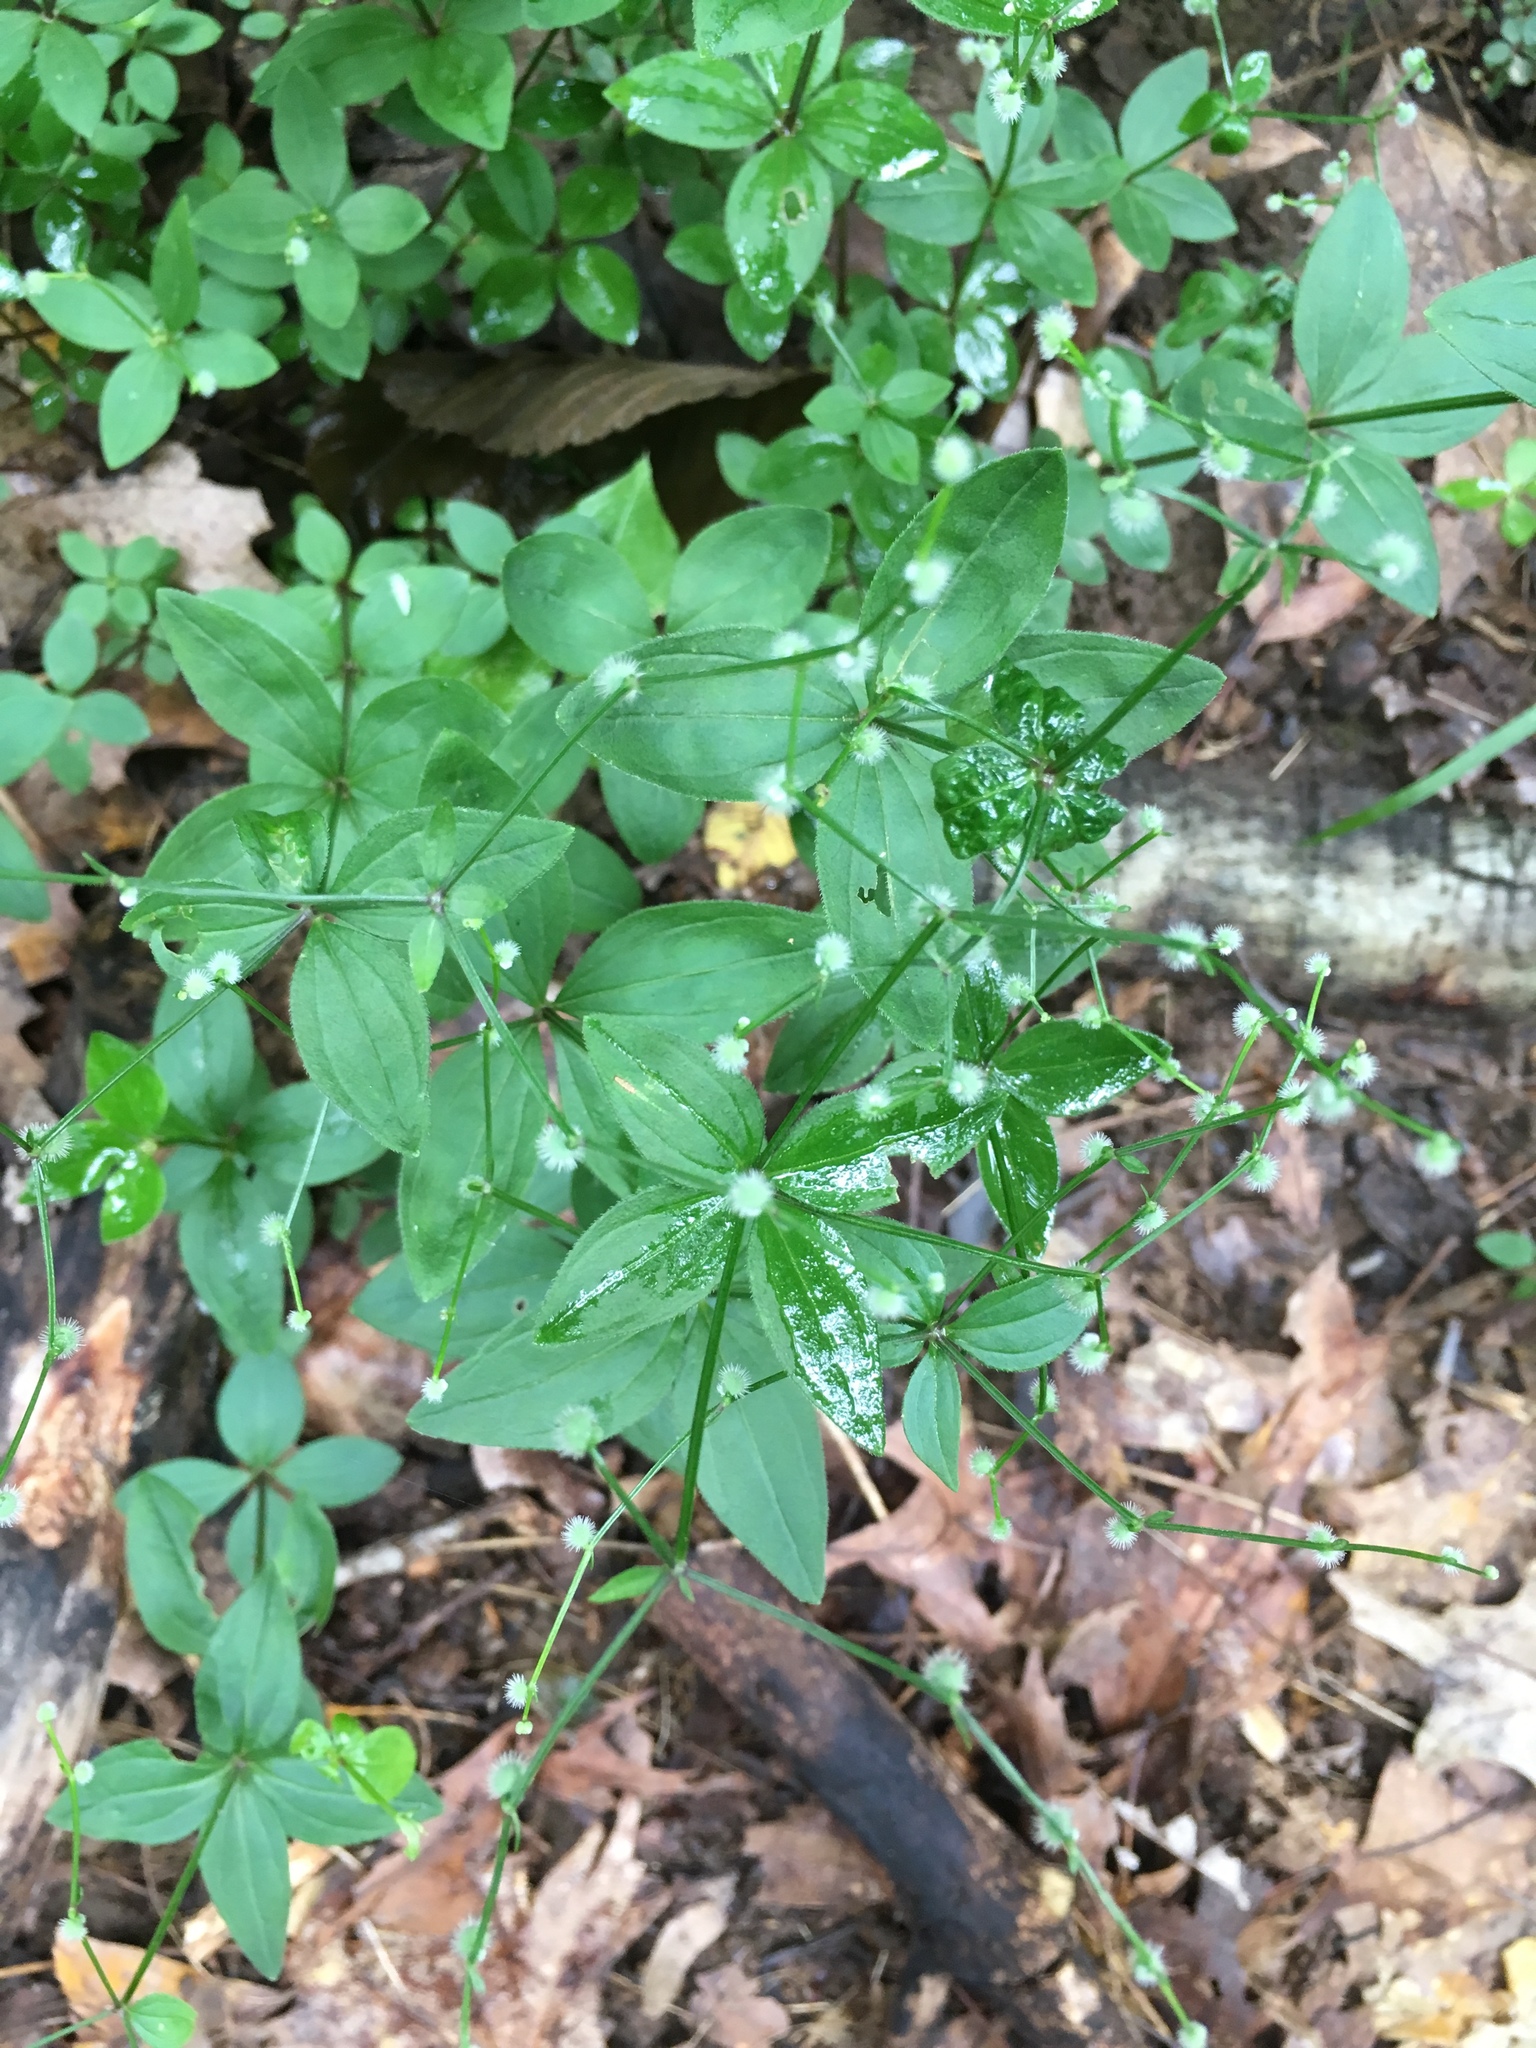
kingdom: Plantae
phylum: Tracheophyta
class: Magnoliopsida
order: Gentianales
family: Rubiaceae
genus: Galium
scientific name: Galium circaezans
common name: Forest bedstraw
